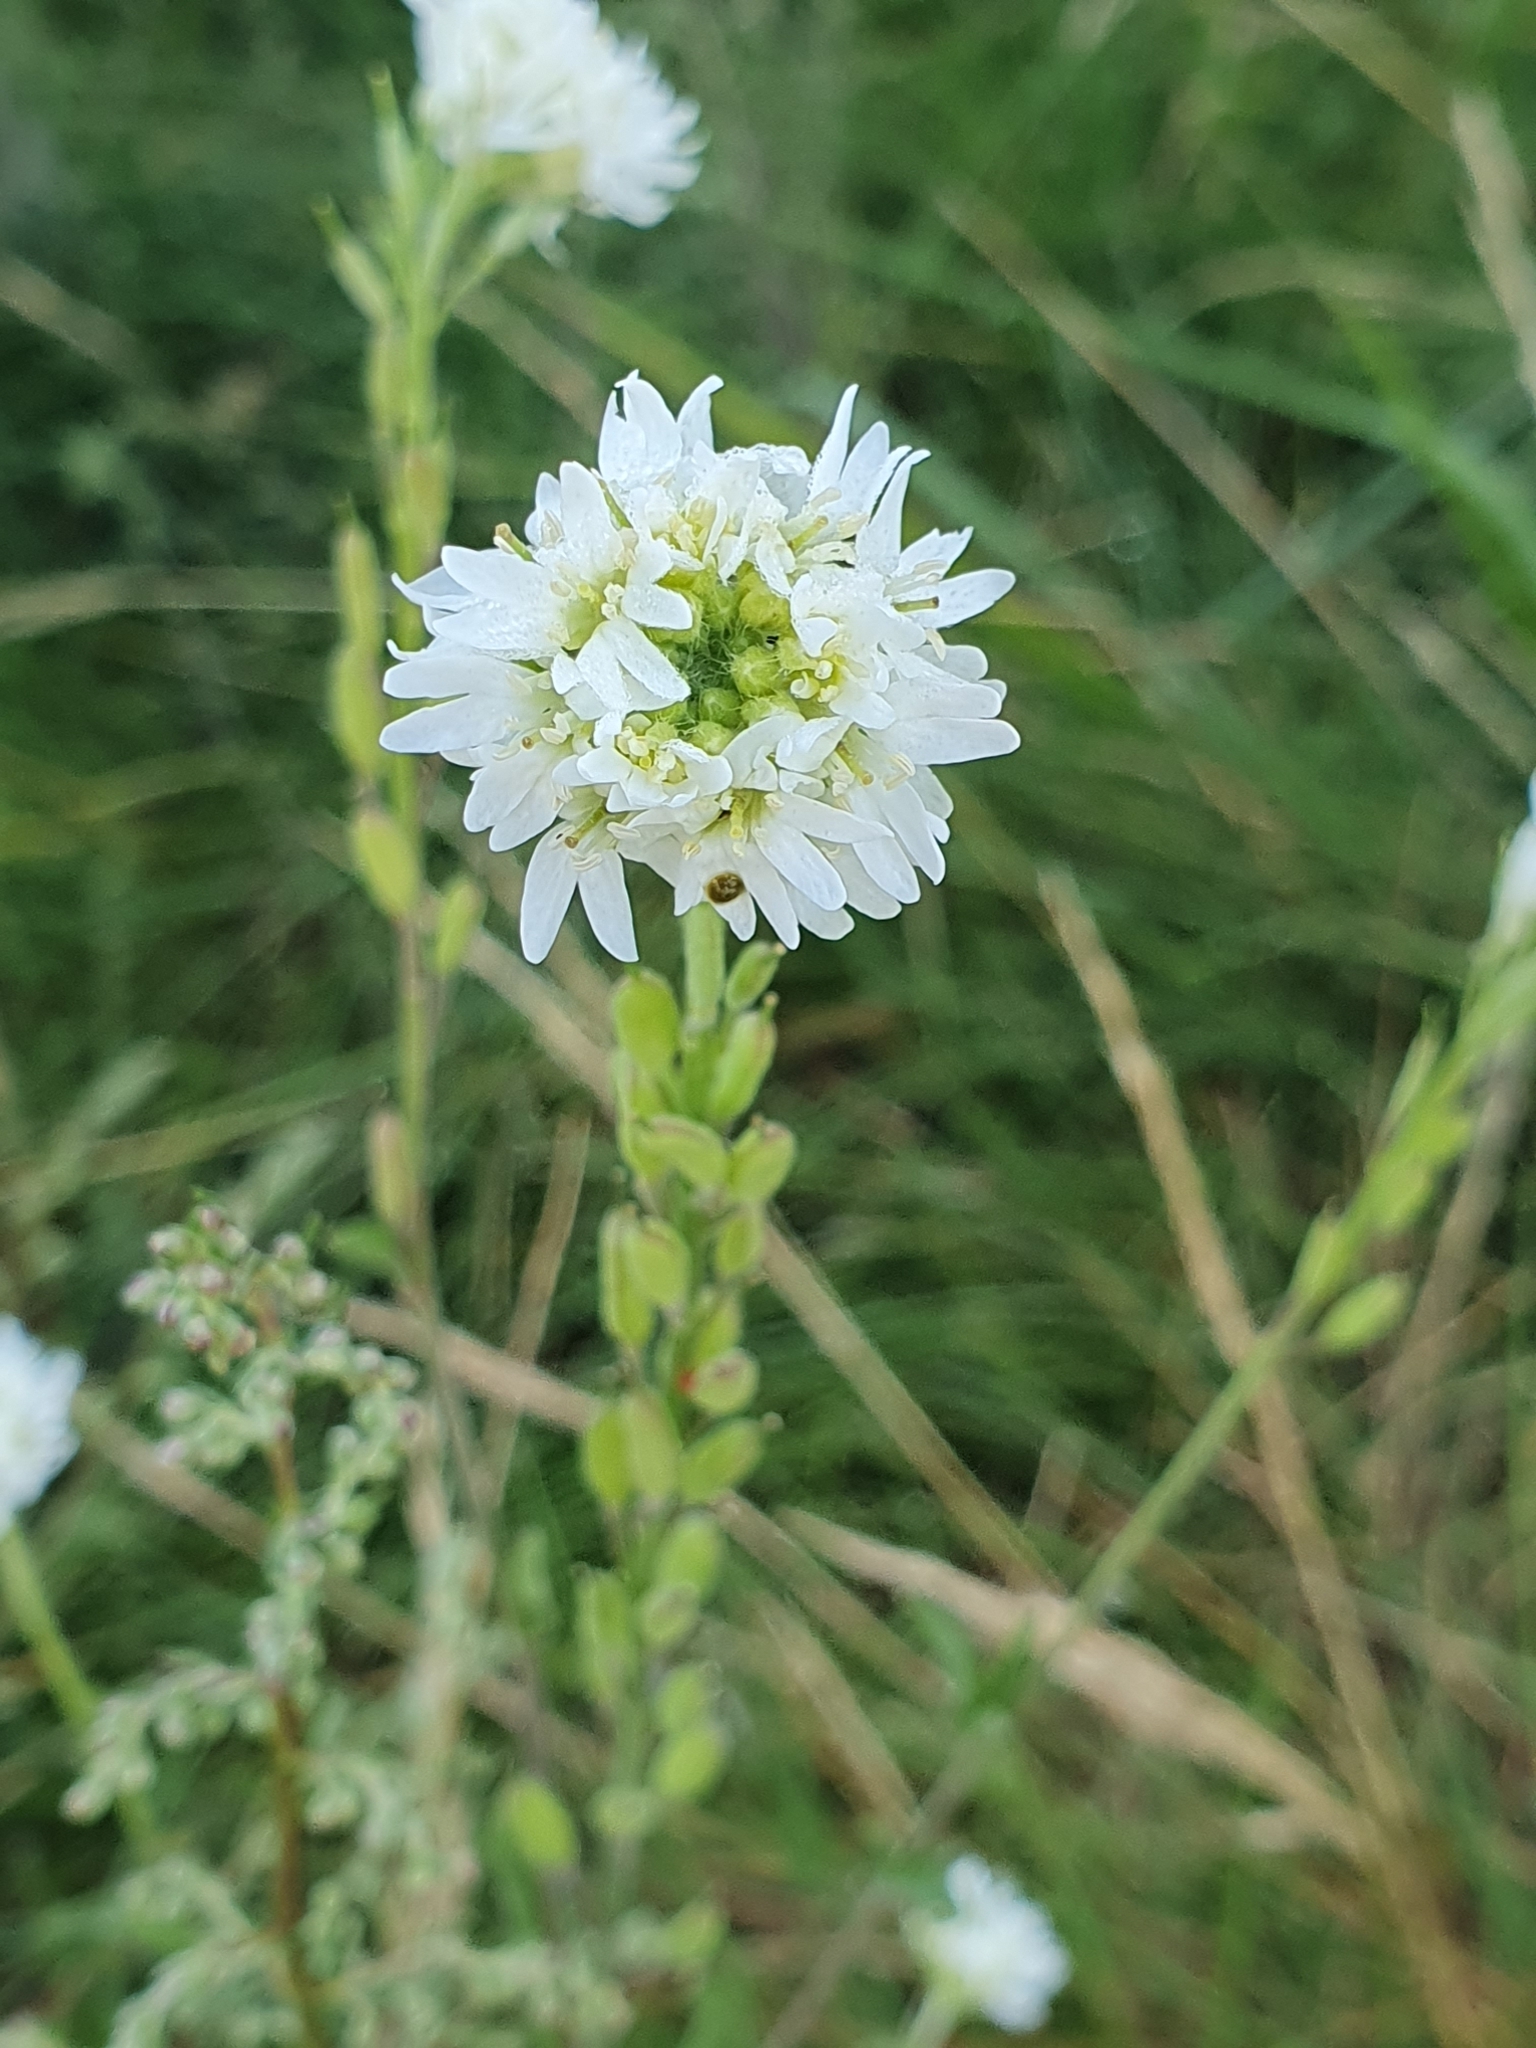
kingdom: Plantae
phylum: Tracheophyta
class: Magnoliopsida
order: Brassicales
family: Brassicaceae
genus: Berteroa
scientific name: Berteroa incana
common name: Hoary alison
